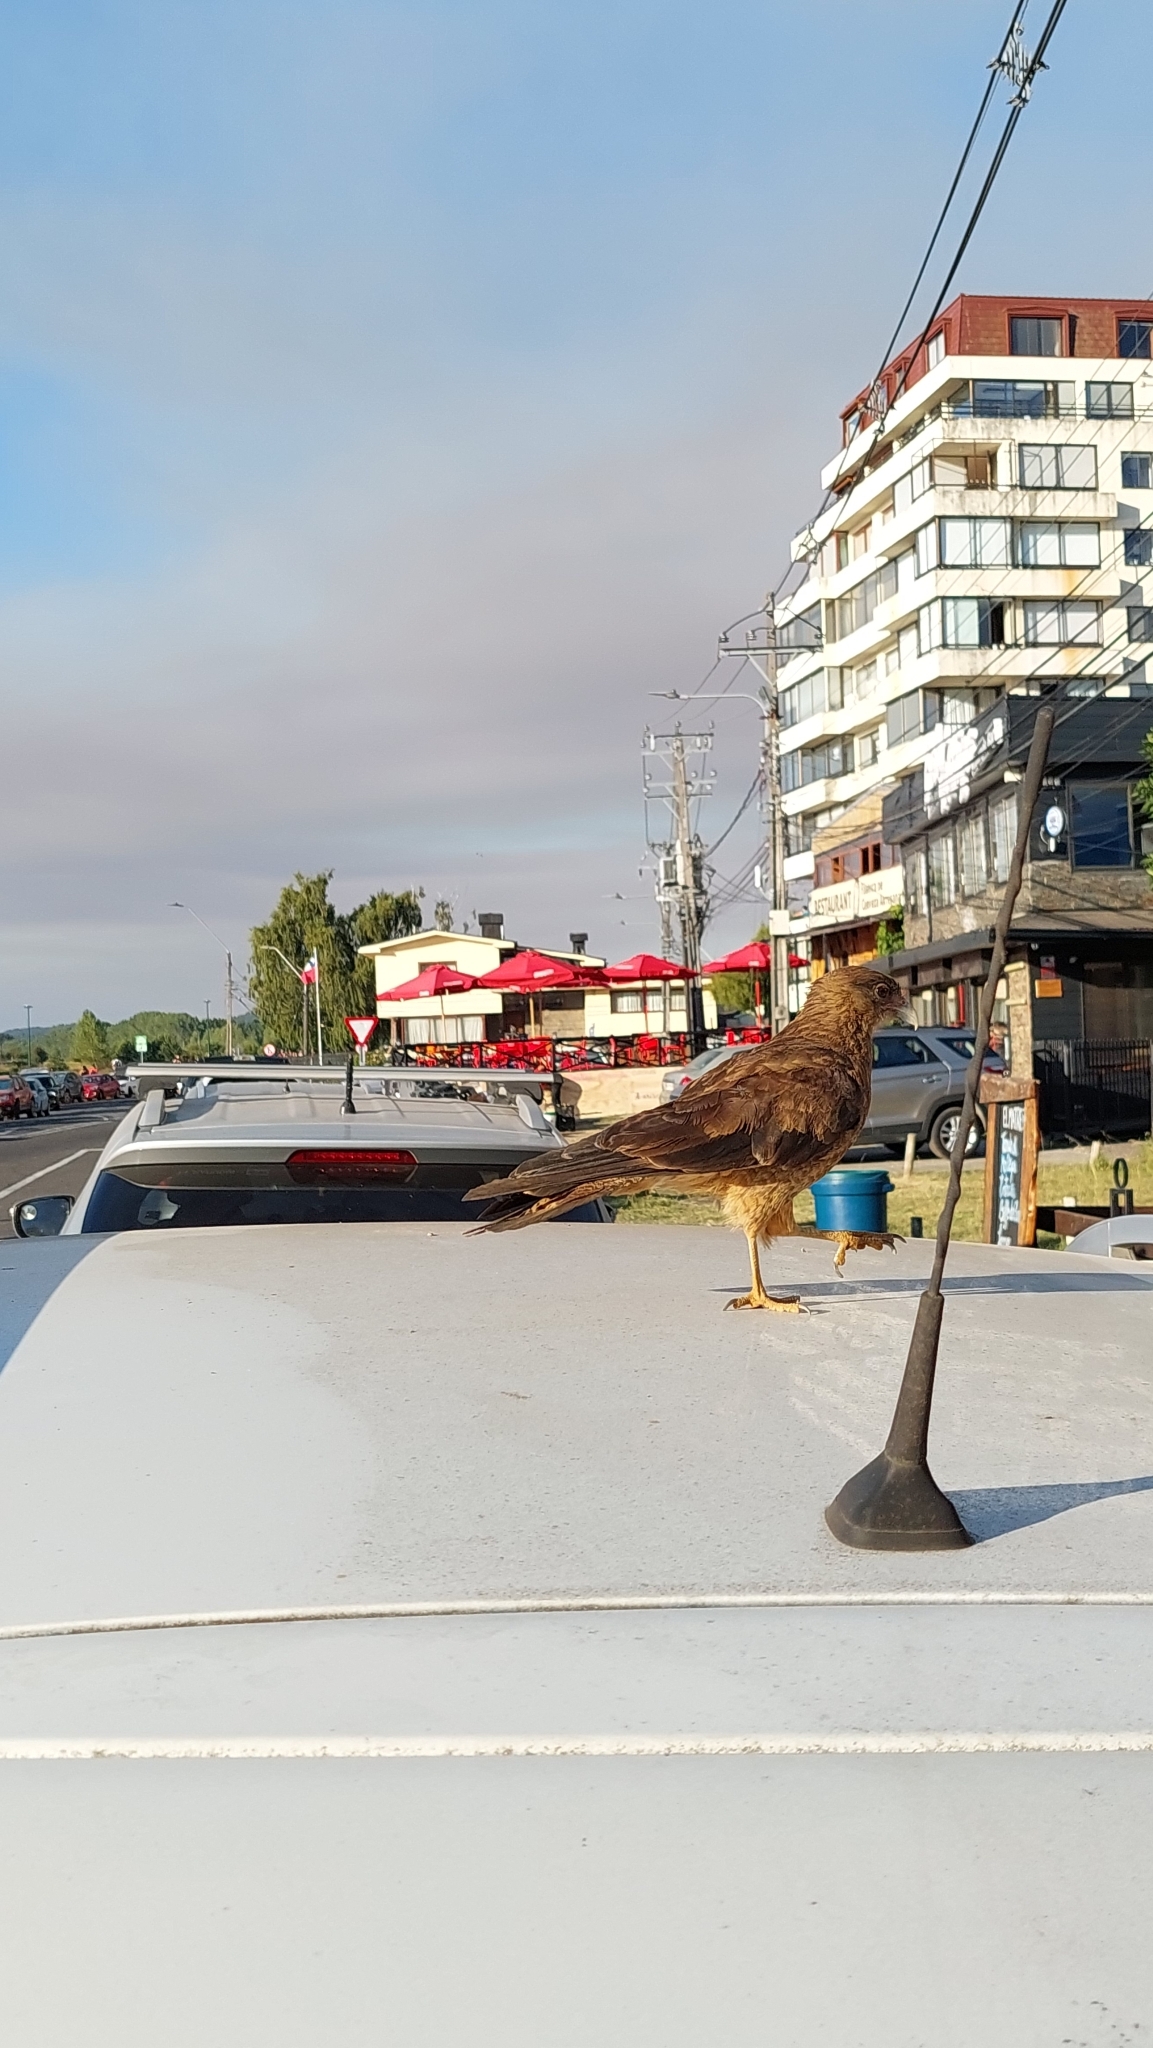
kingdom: Animalia
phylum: Chordata
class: Aves
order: Falconiformes
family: Falconidae
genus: Daptrius
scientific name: Daptrius
